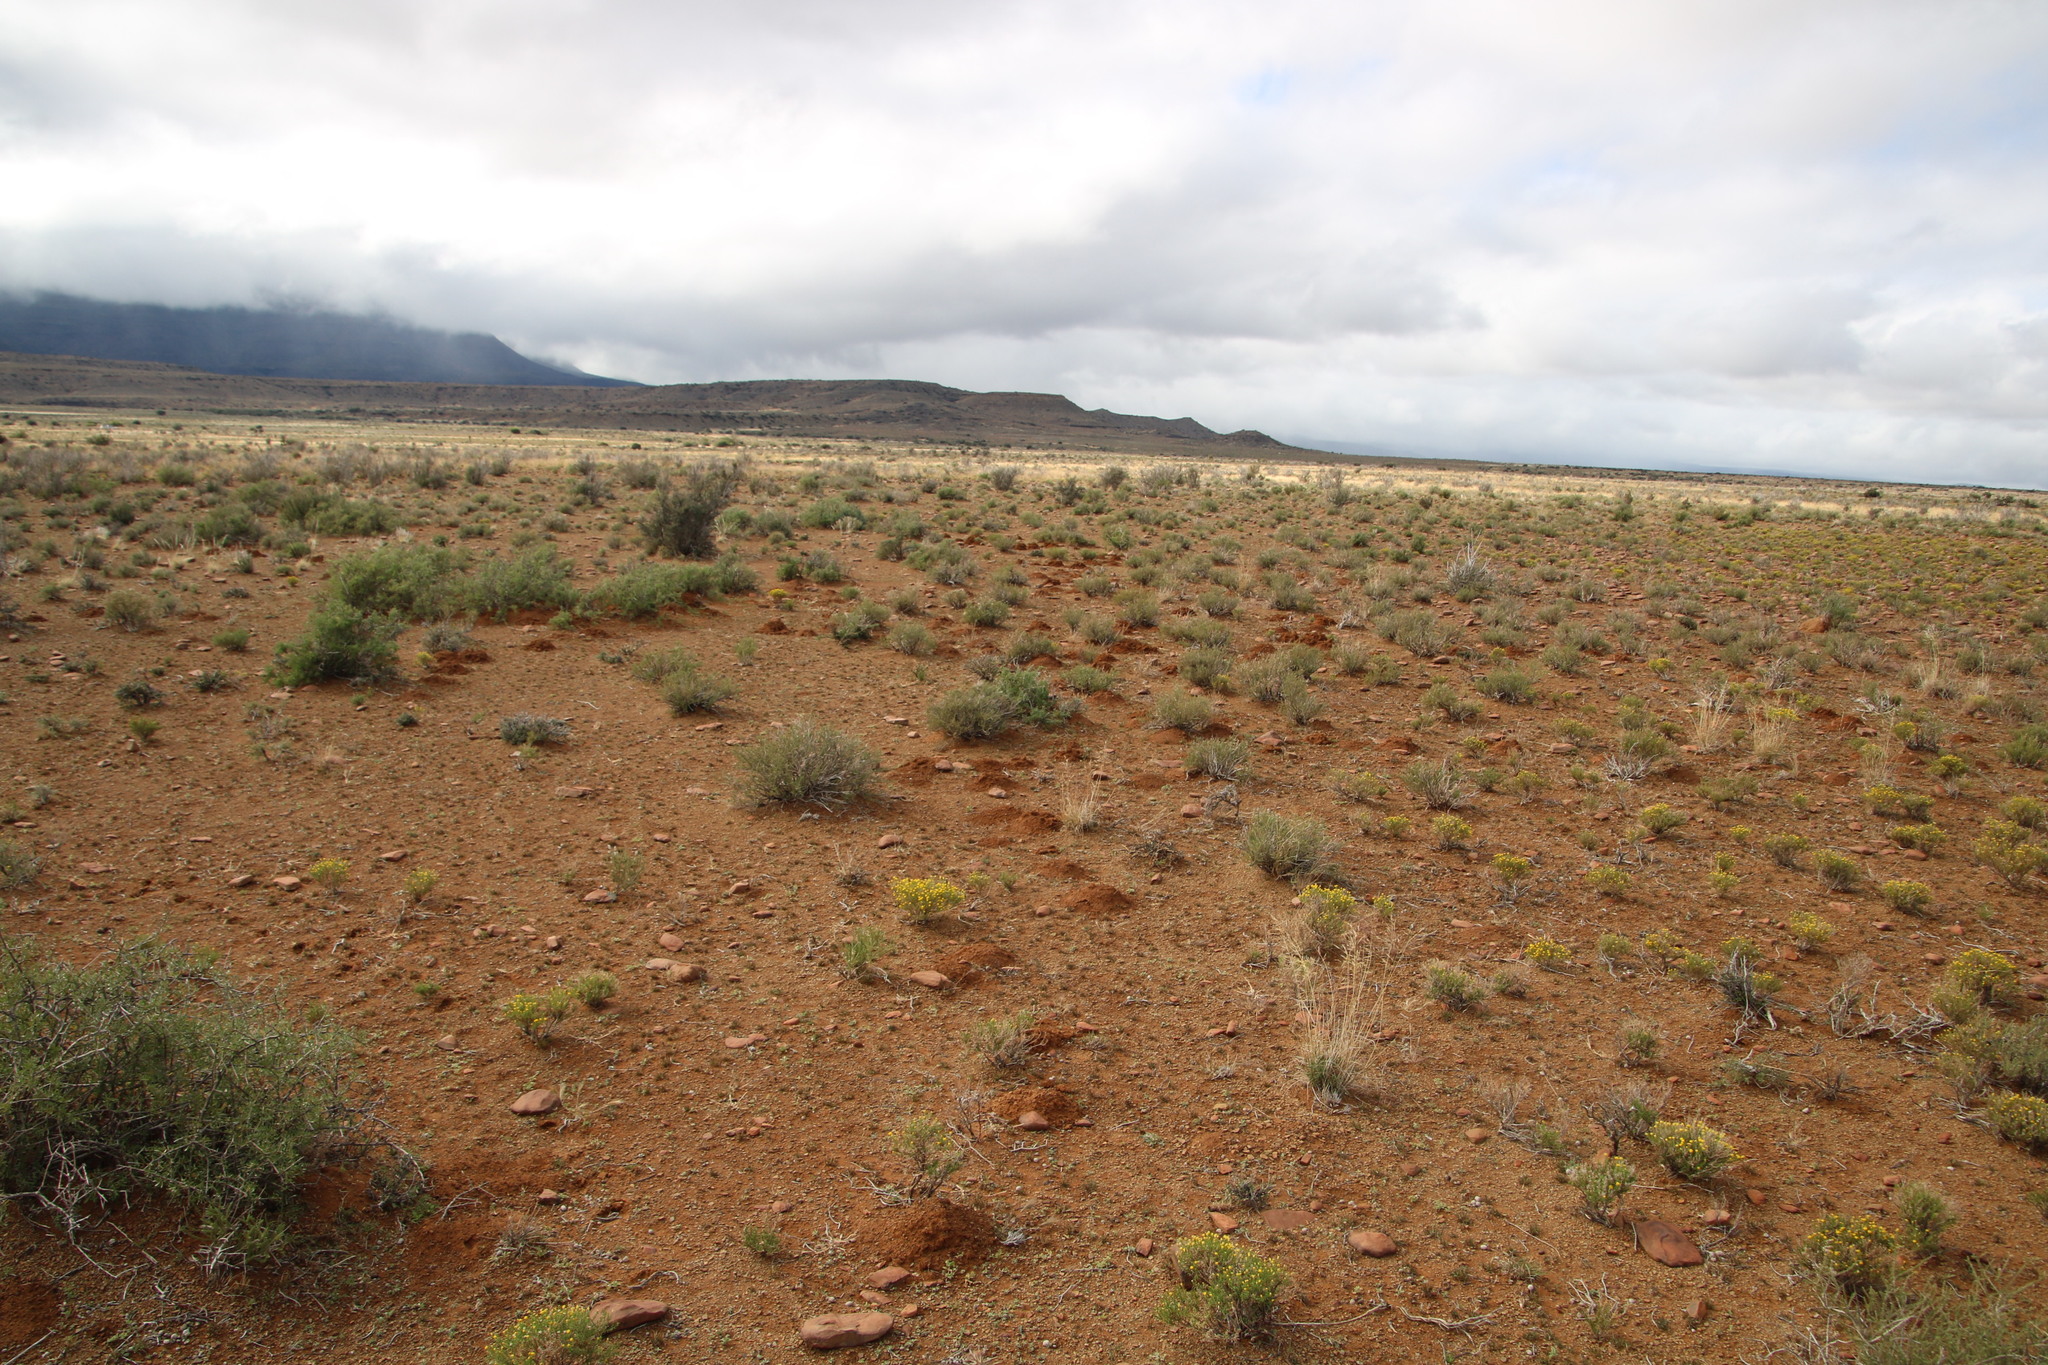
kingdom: Animalia
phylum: Chordata
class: Mammalia
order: Rodentia
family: Bathyergidae
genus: Cryptomys
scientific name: Cryptomys hottentotus
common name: Southern african mole-rat
